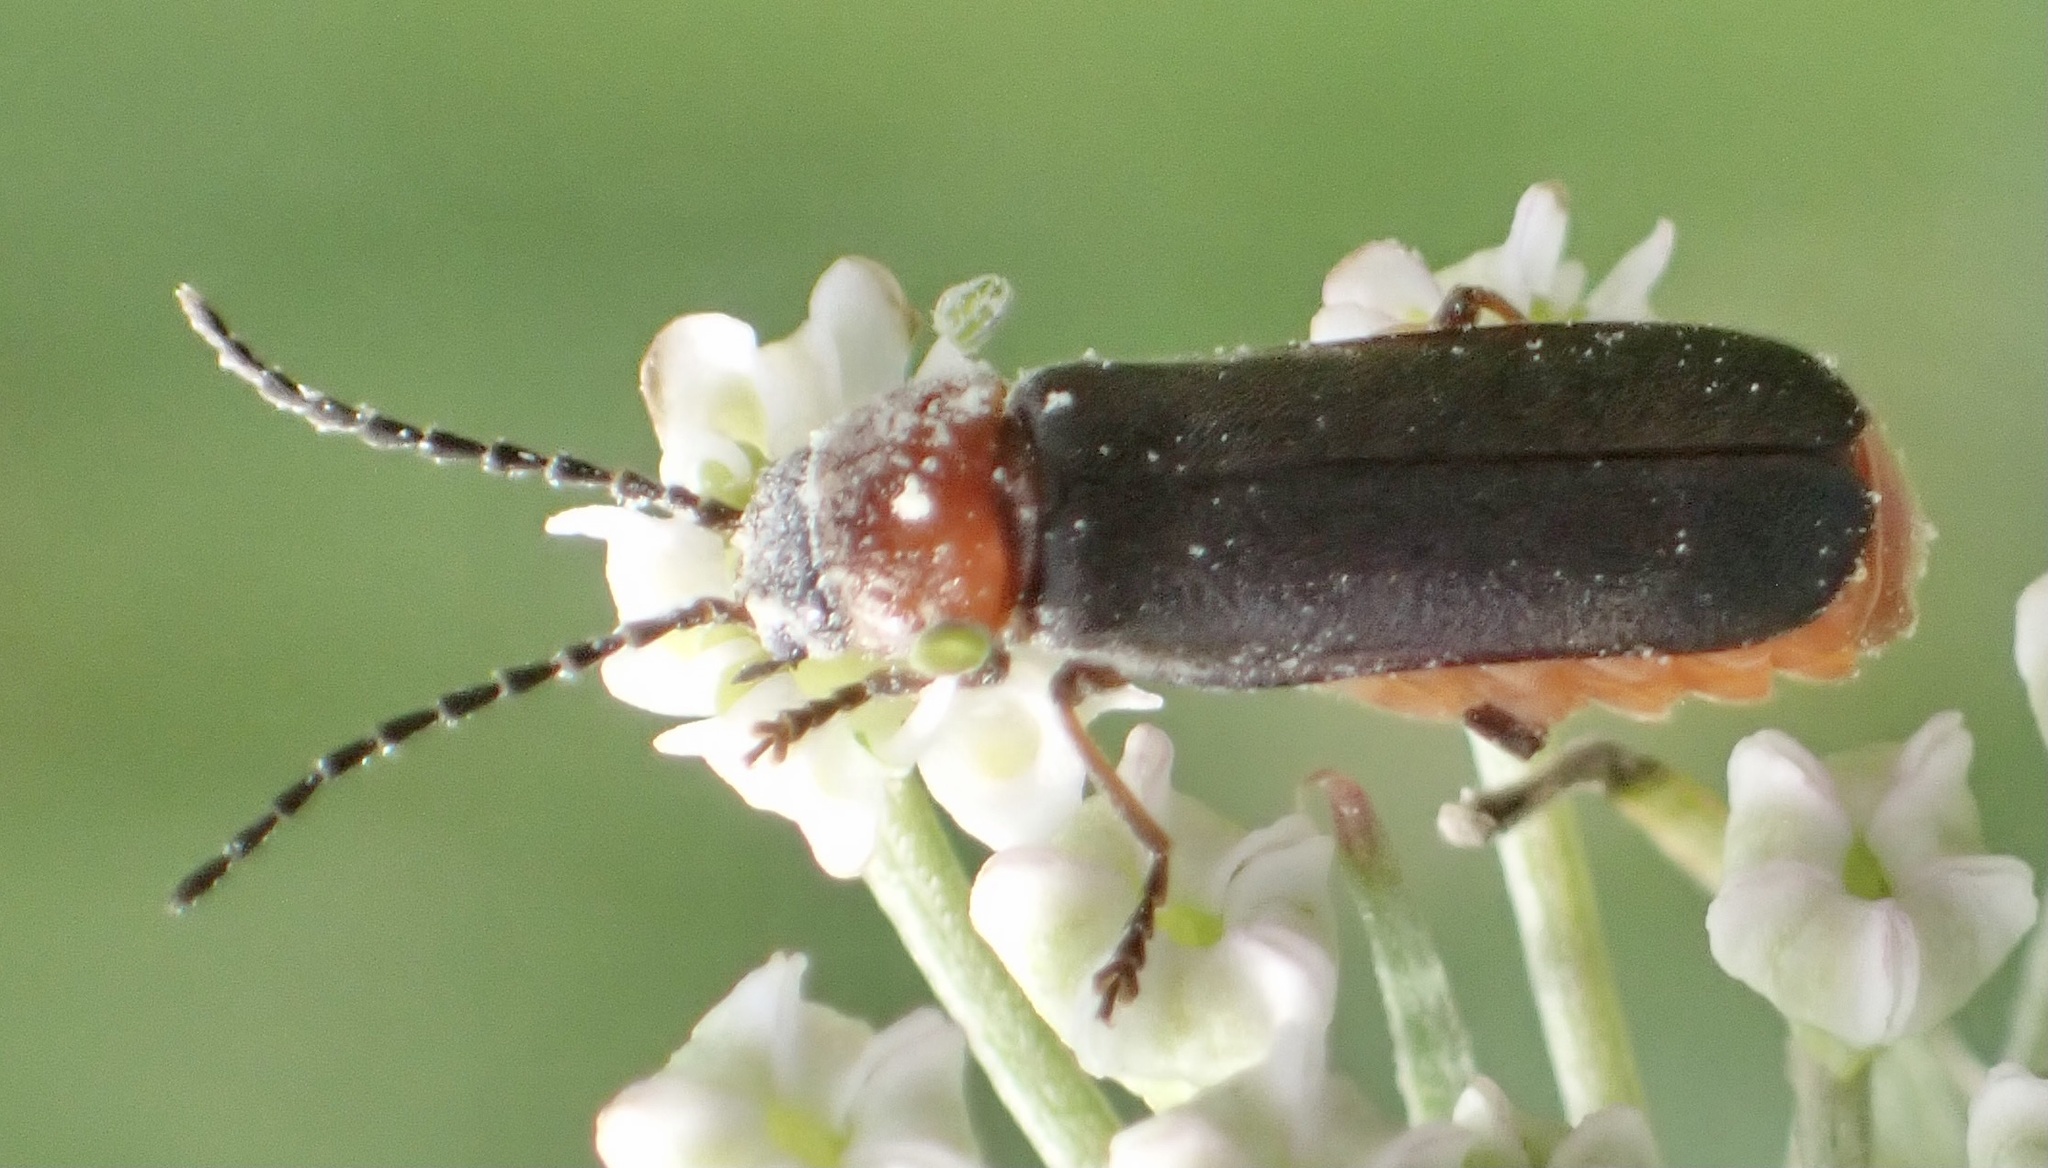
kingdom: Animalia
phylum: Arthropoda
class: Insecta
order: Coleoptera
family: Cantharidae
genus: Cantharis
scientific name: Cantharis flavilabris
